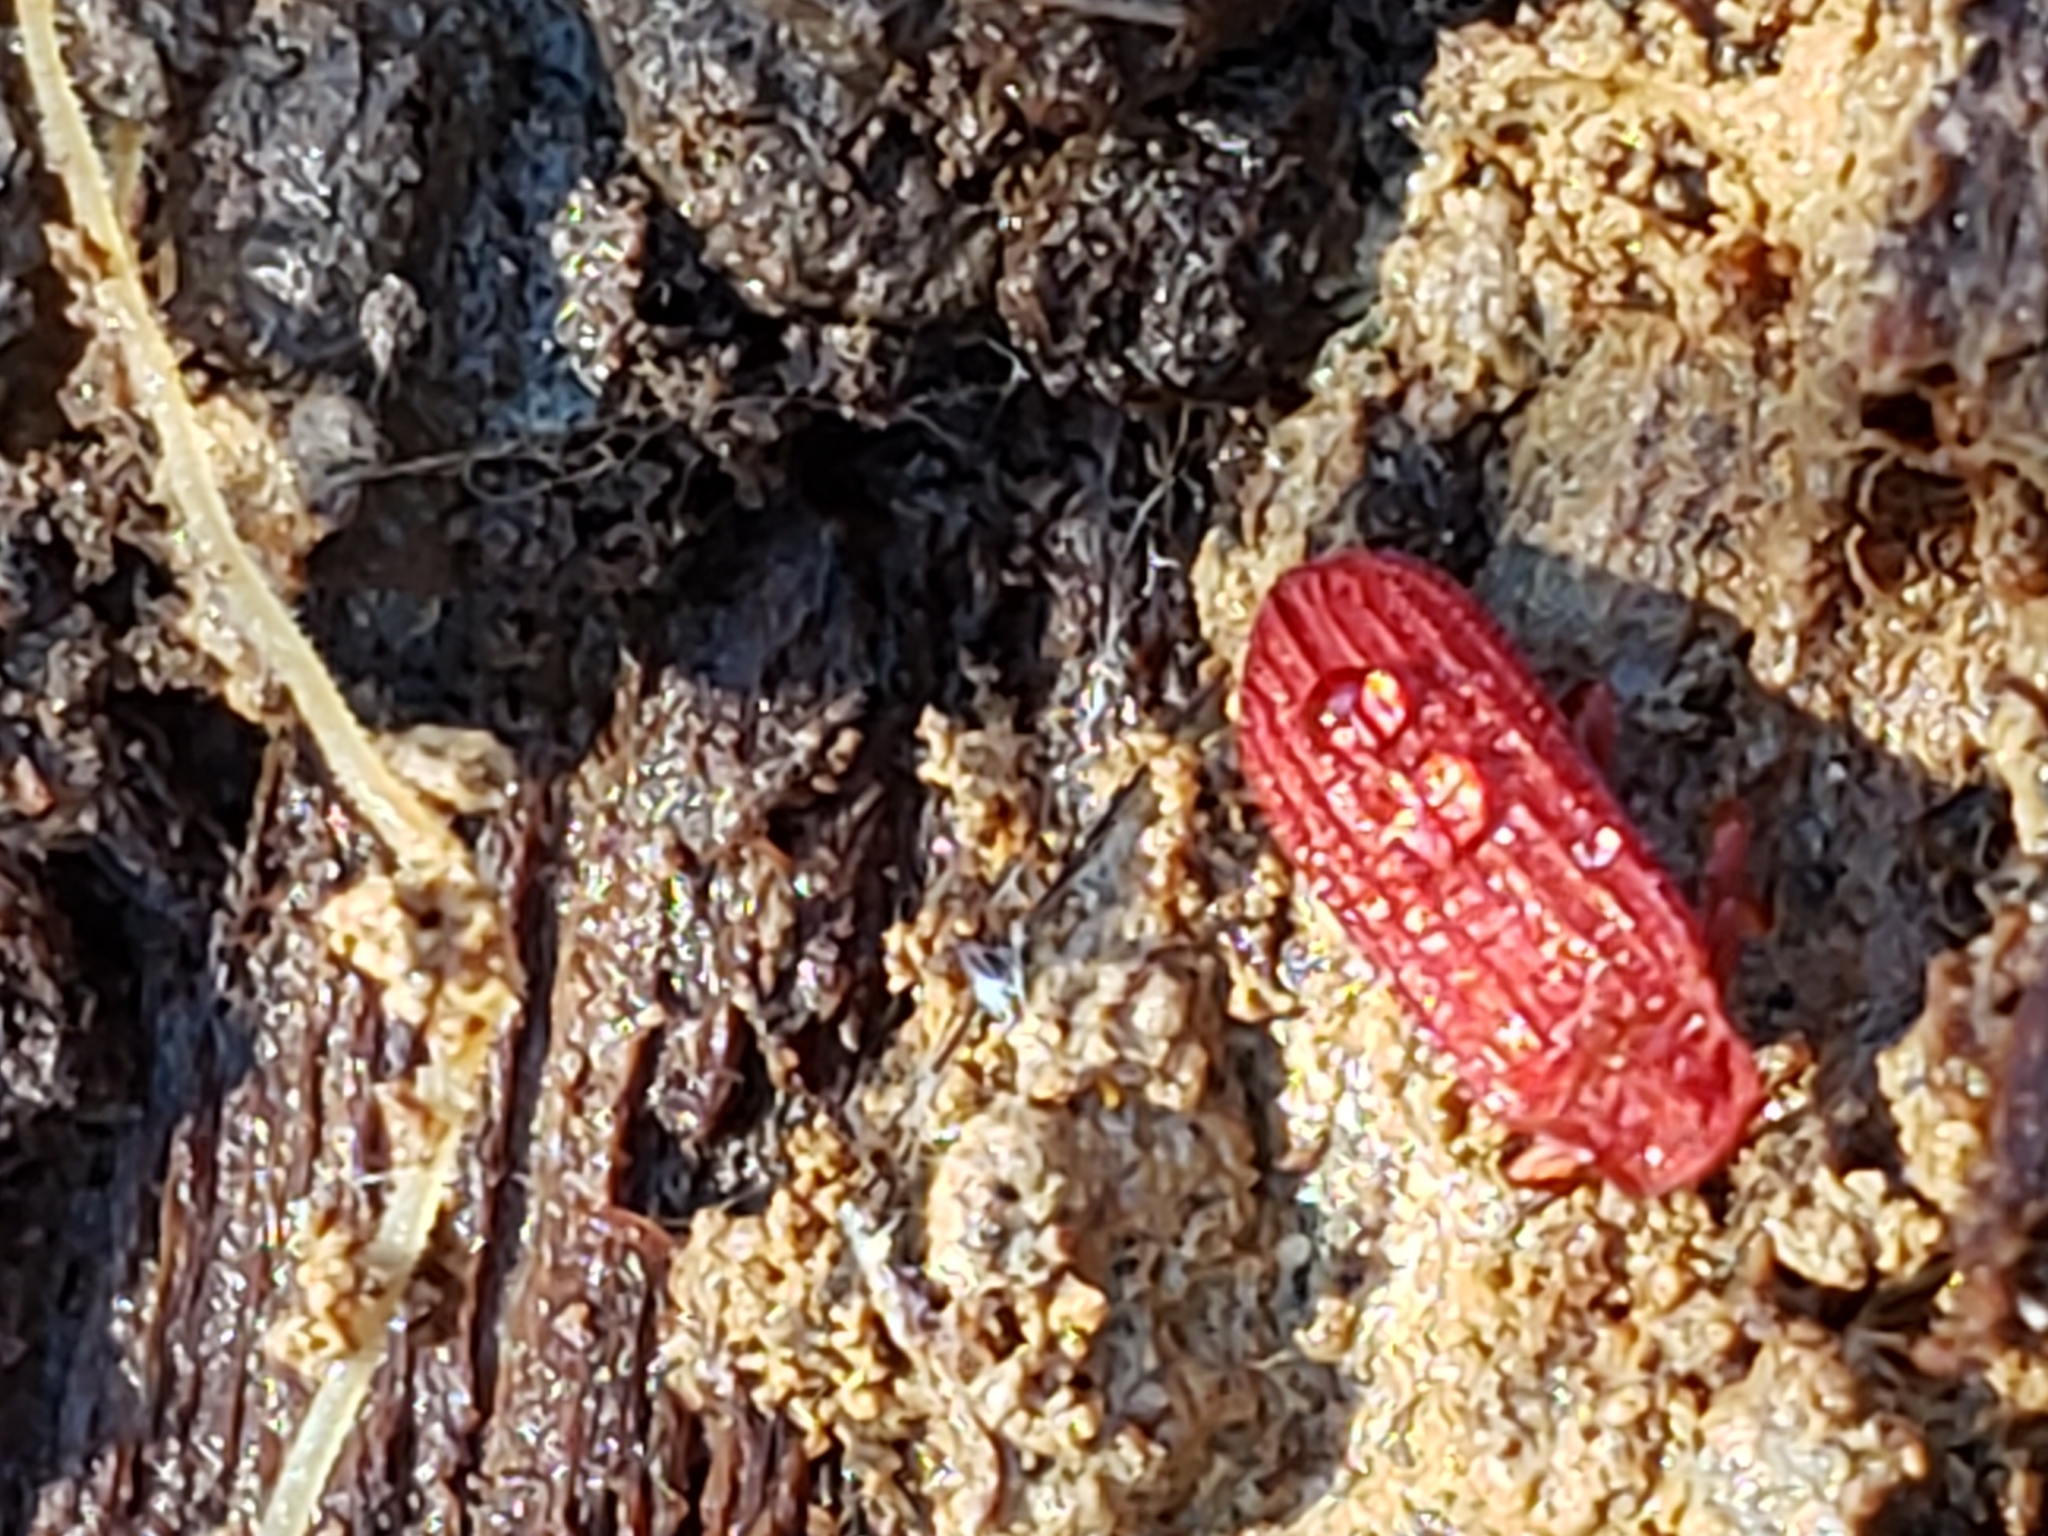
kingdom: Animalia
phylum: Arthropoda
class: Insecta
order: Coleoptera
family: Lycidae
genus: Punicealis
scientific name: Punicealis
